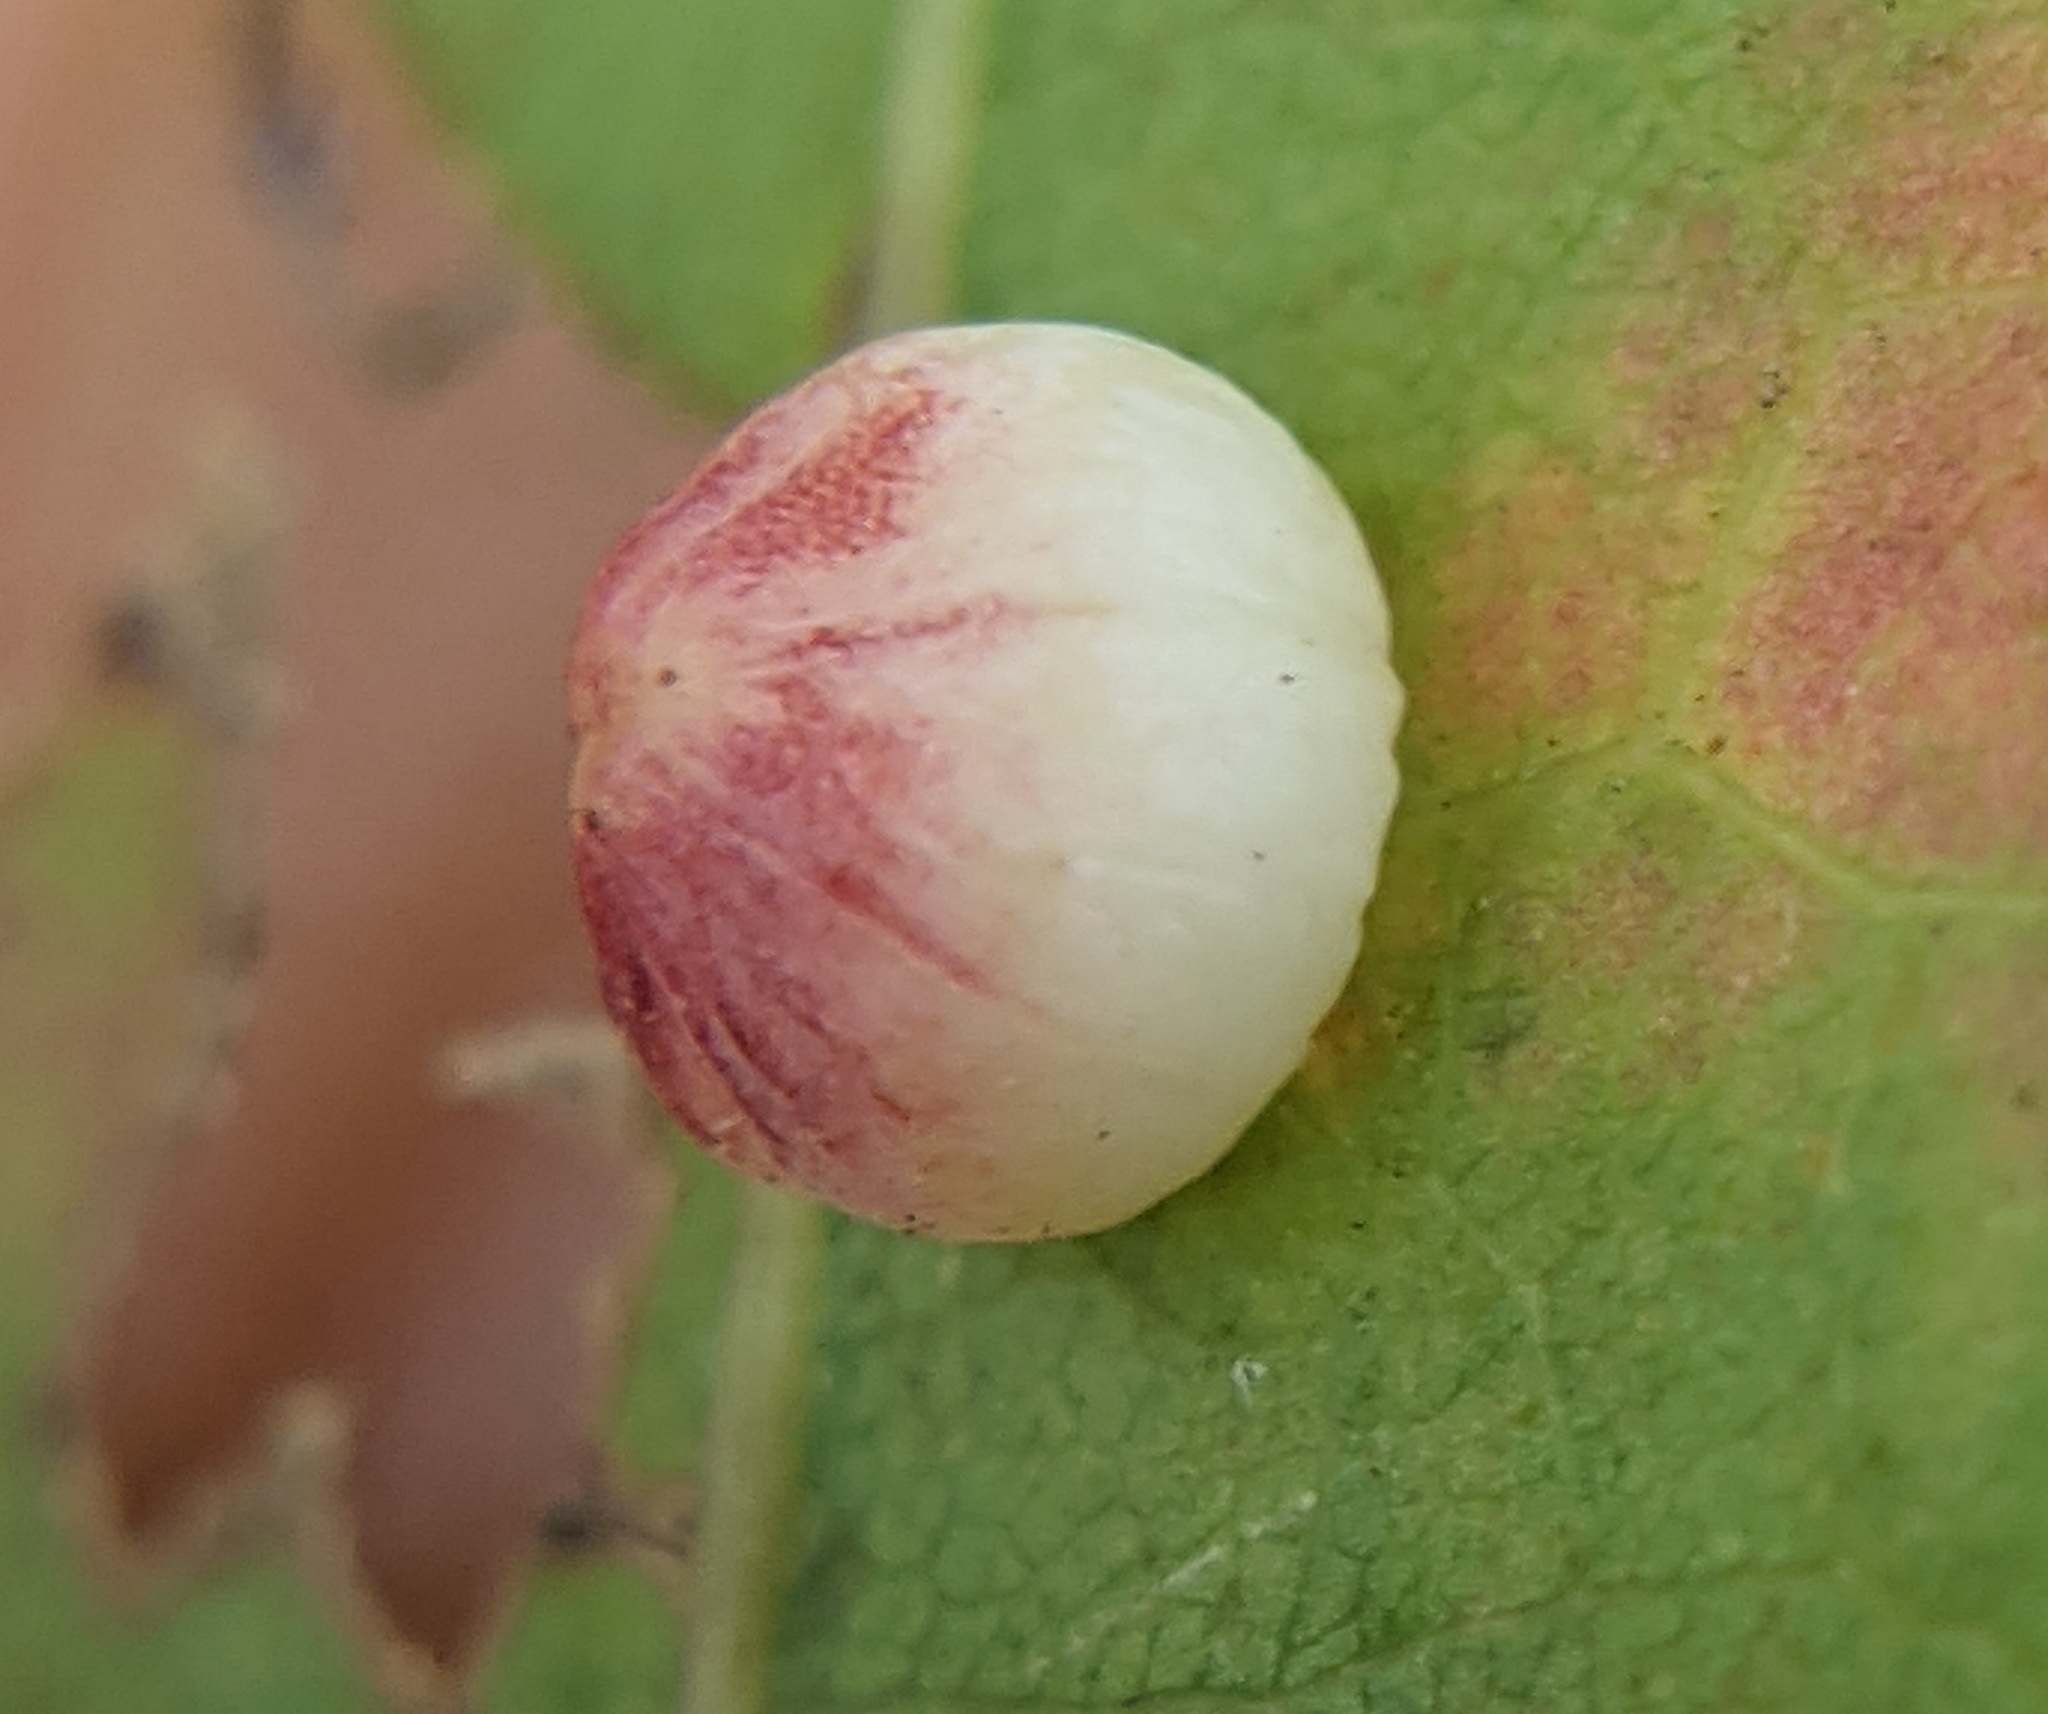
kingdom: Animalia
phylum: Arthropoda
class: Insecta
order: Hymenoptera
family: Cynipidae
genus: Zopheroteras
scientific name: Zopheroteras
